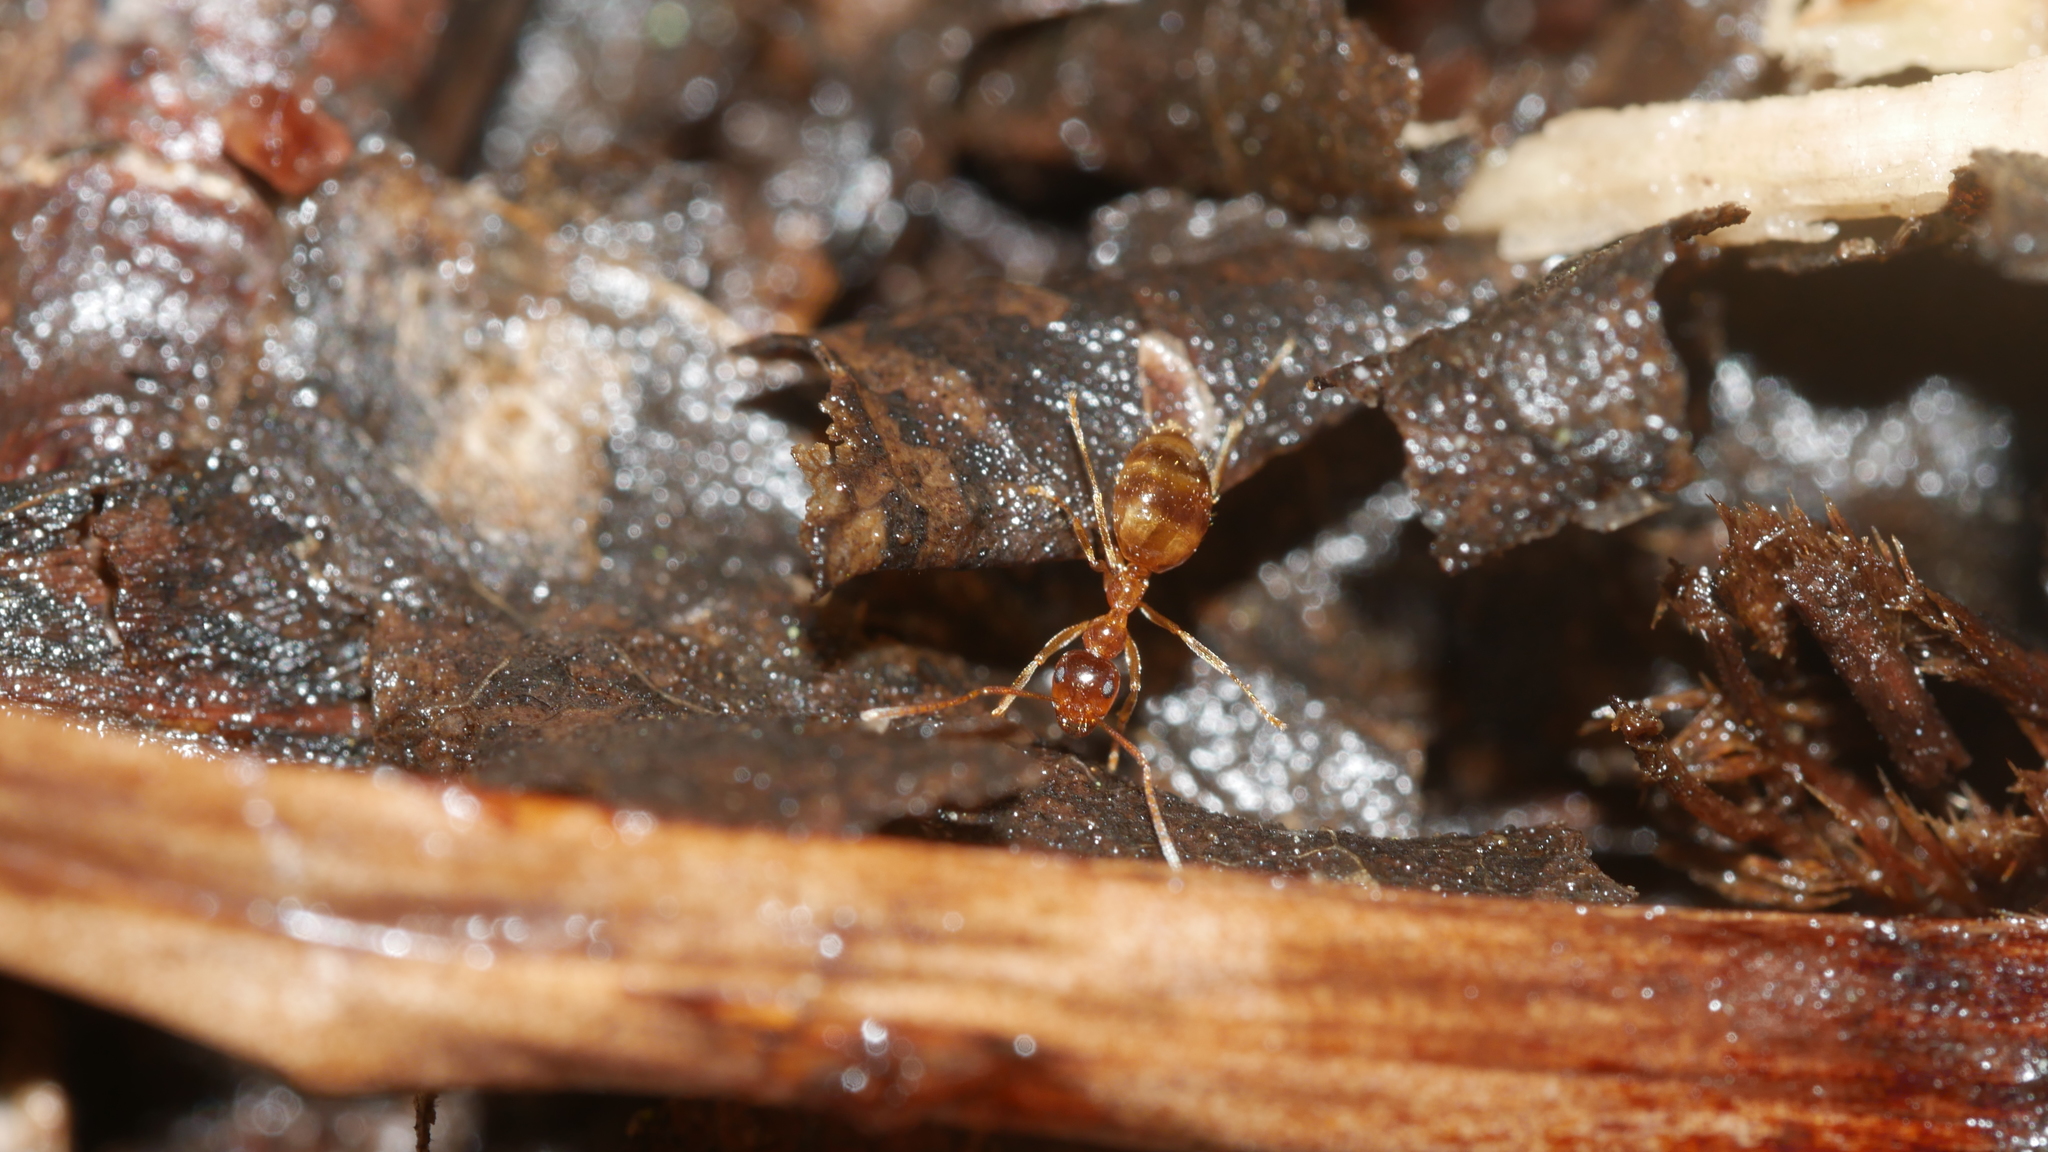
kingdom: Animalia
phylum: Arthropoda
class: Insecta
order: Hymenoptera
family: Formicidae
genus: Prenolepis
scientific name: Prenolepis imparis
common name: Small honey ant
